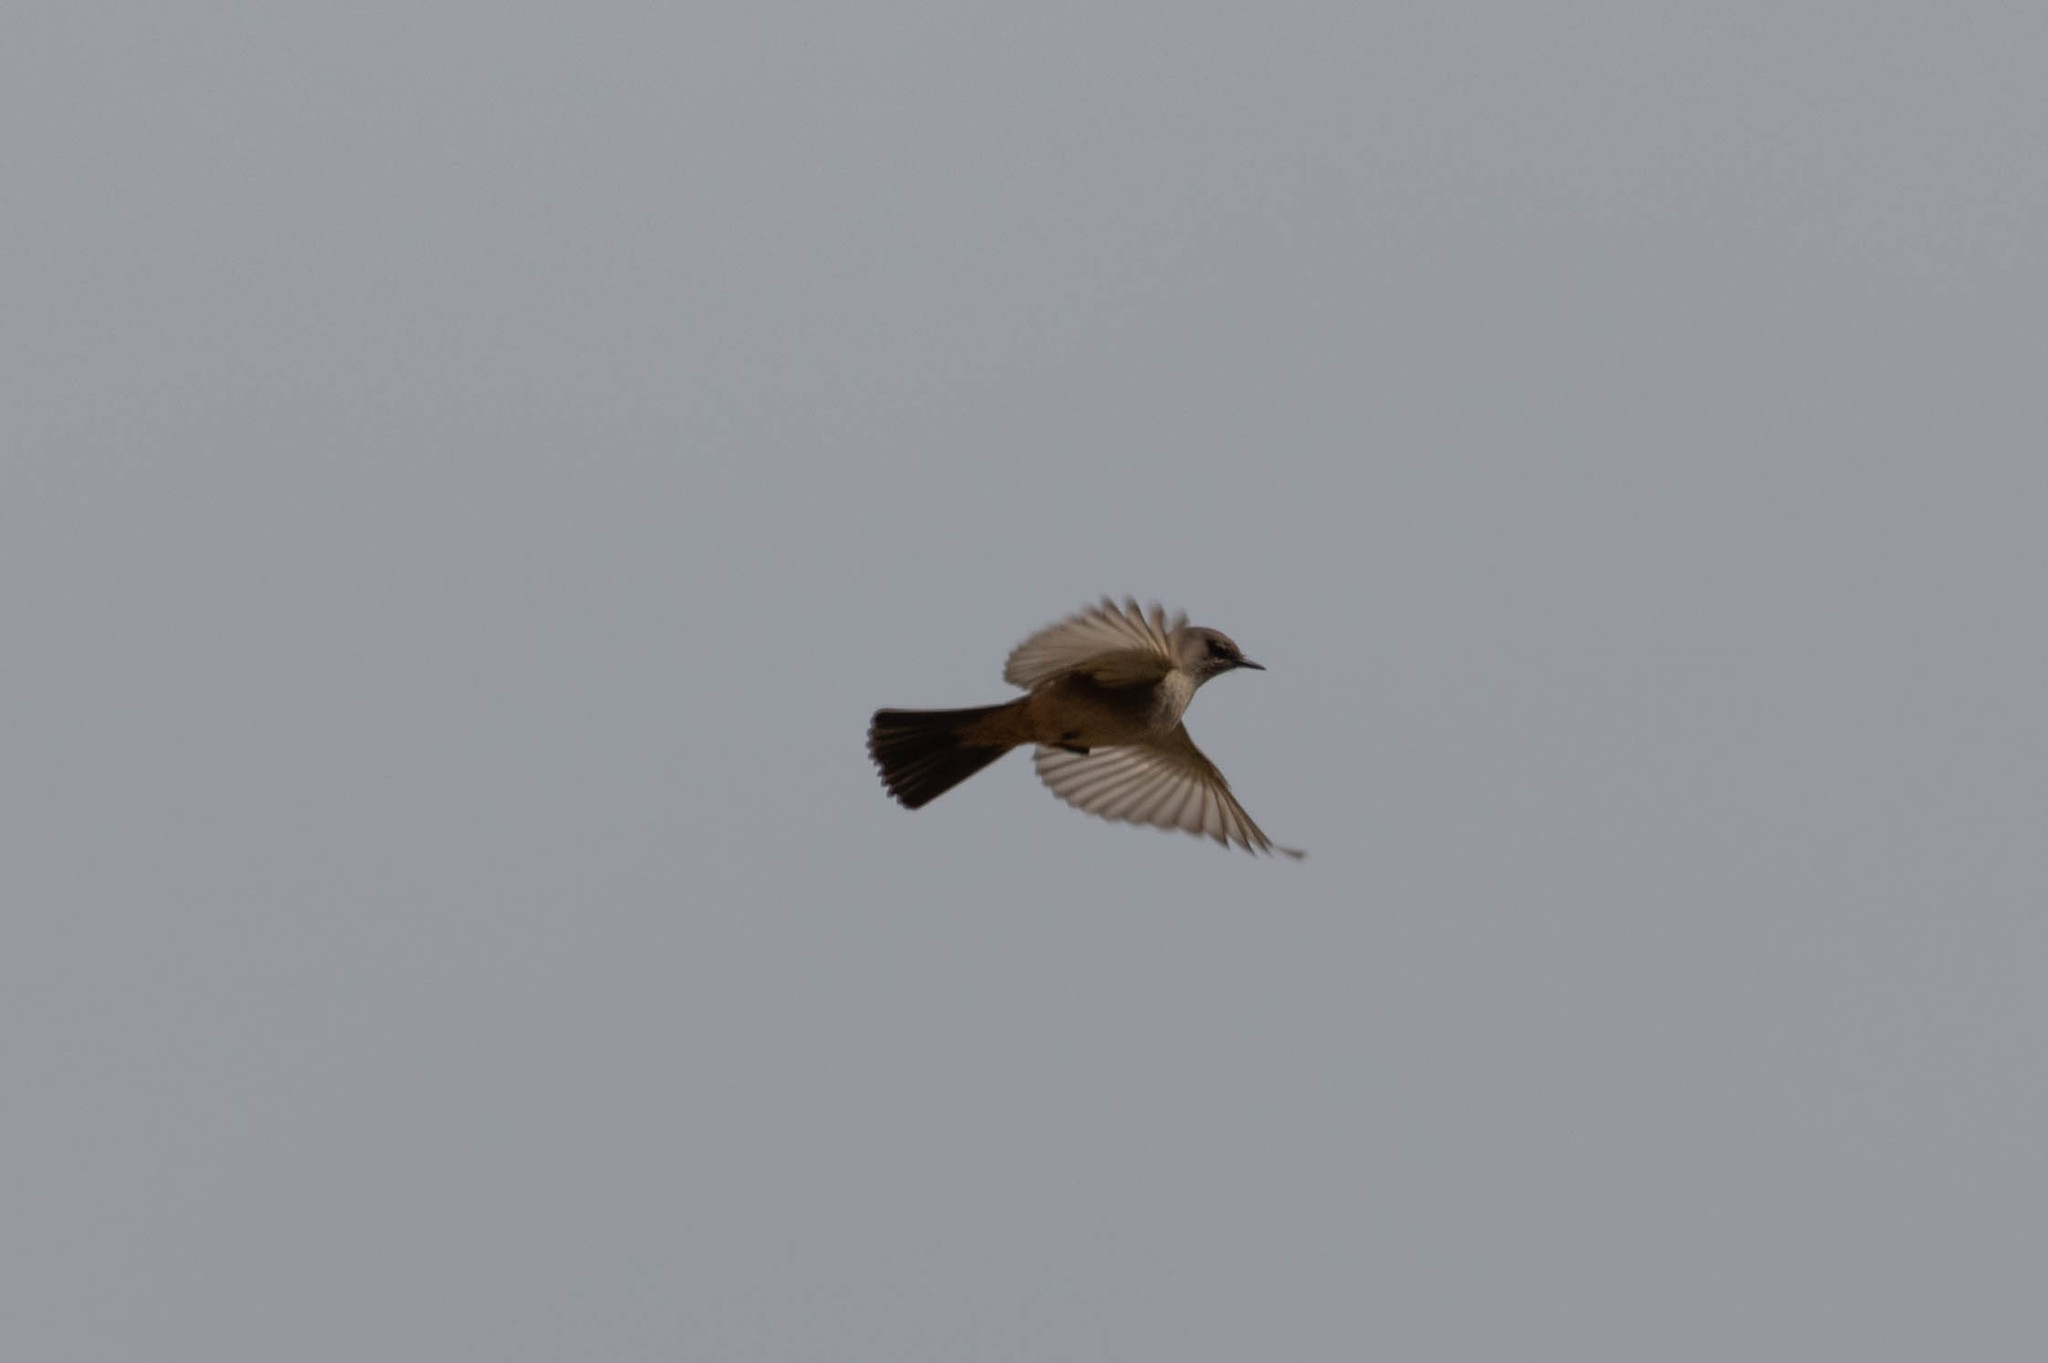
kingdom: Animalia
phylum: Chordata
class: Aves
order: Passeriformes
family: Tyrannidae
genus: Sayornis
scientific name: Sayornis saya
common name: Say's phoebe
